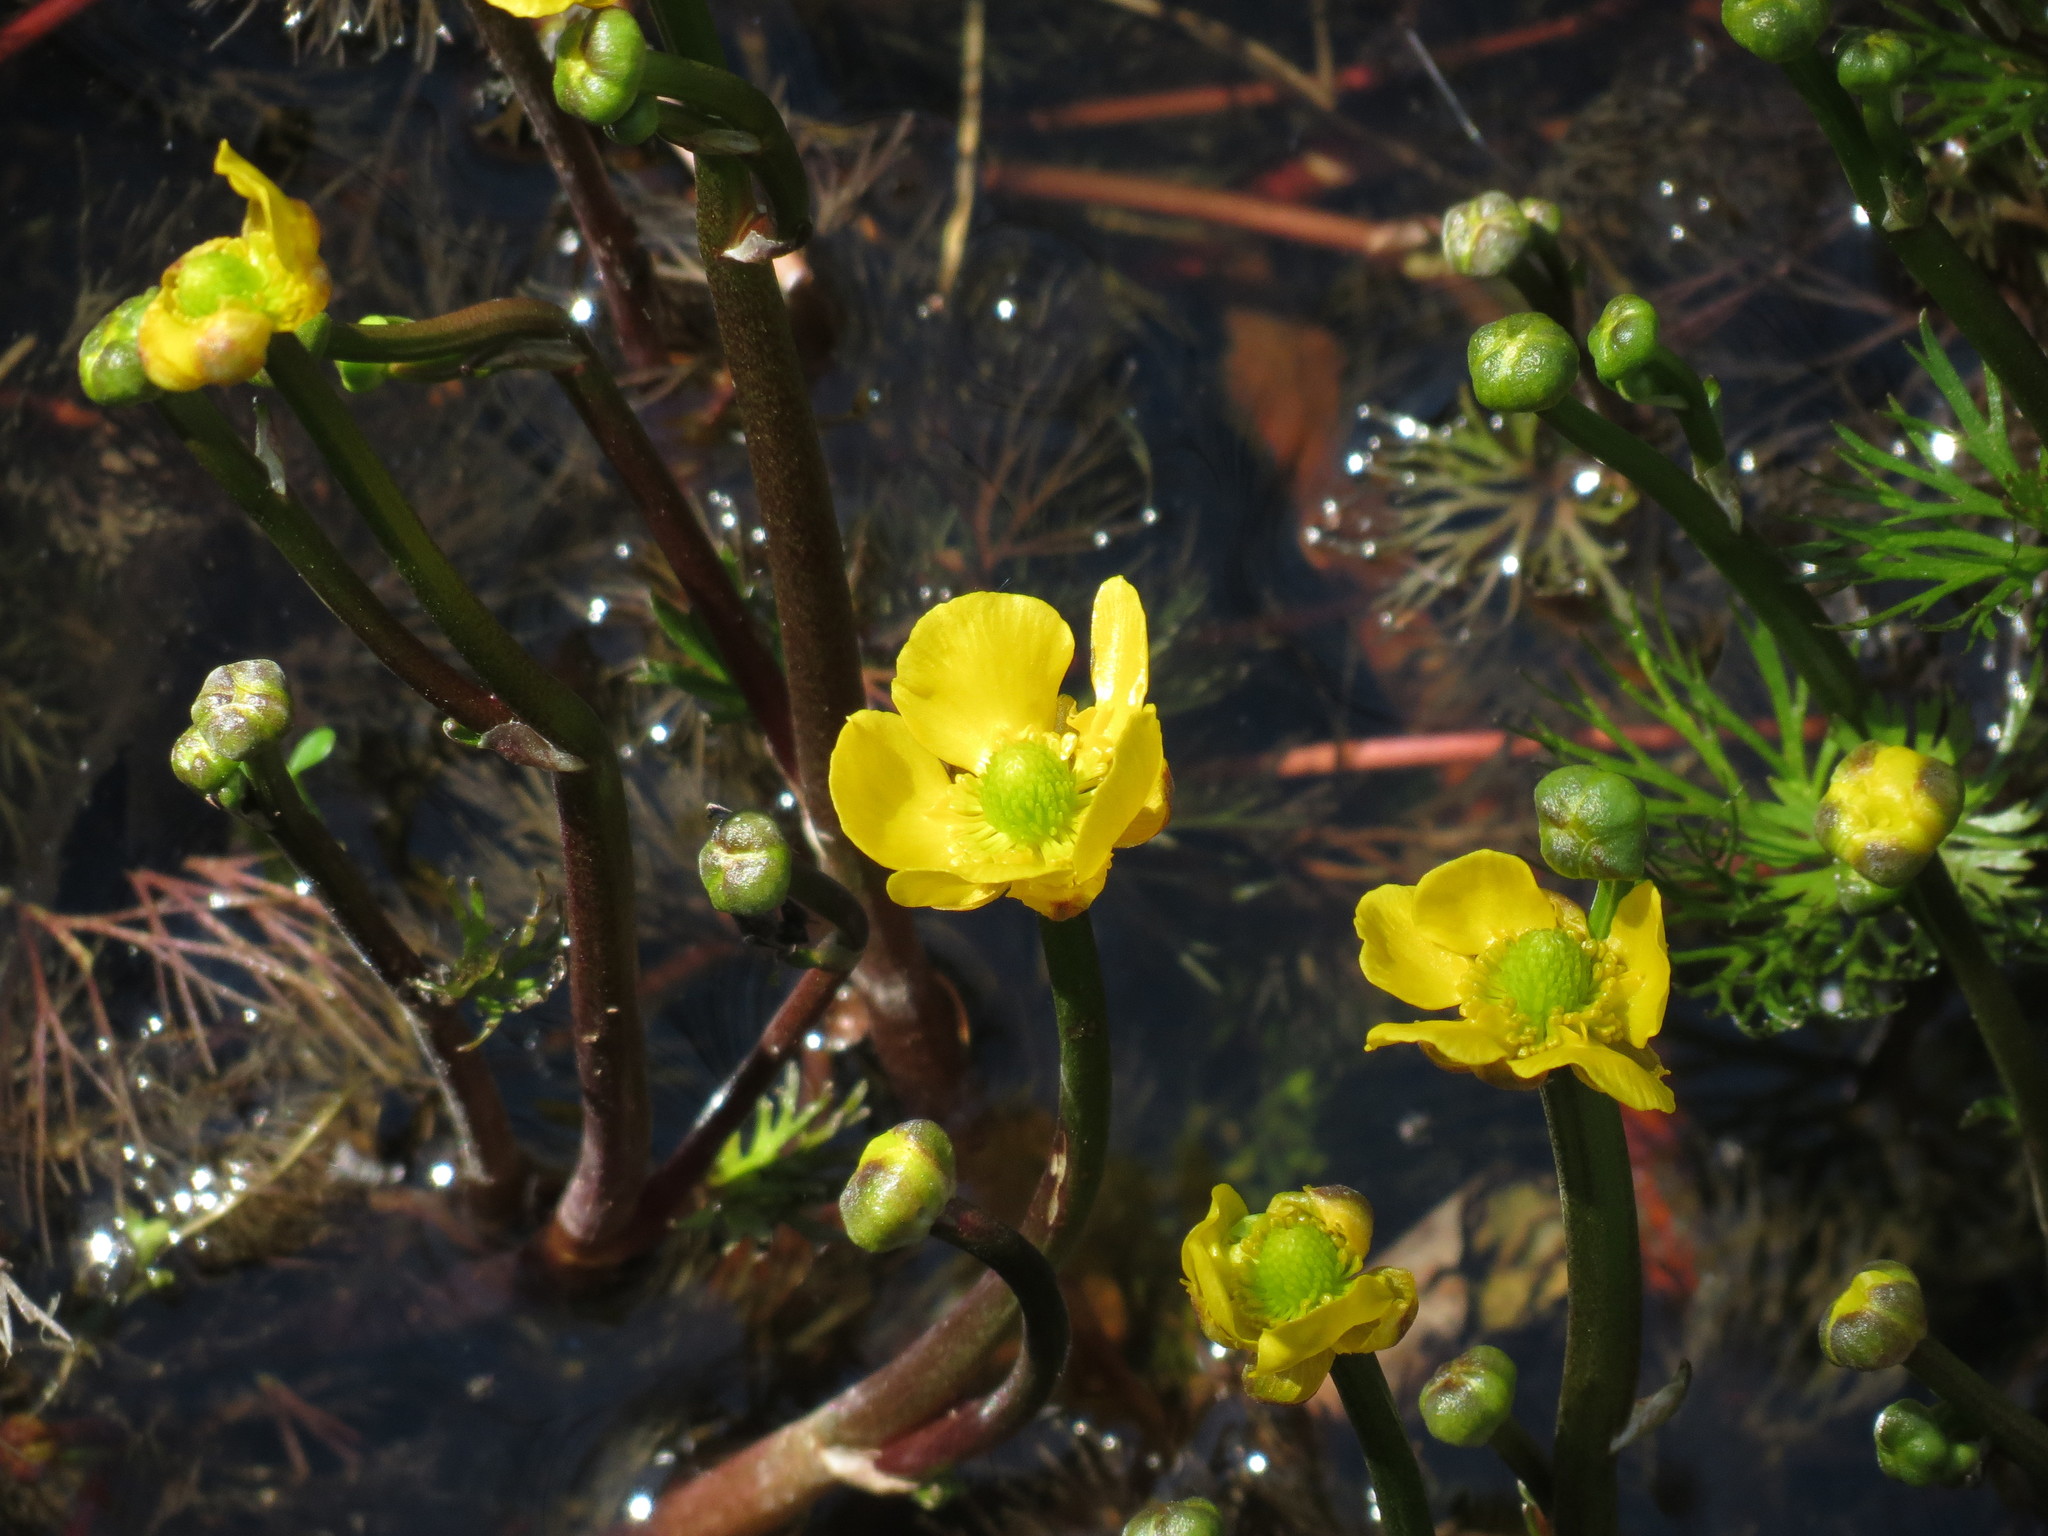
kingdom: Plantae
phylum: Tracheophyta
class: Magnoliopsida
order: Ranunculales
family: Ranunculaceae
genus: Ranunculus
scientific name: Ranunculus flabellaris
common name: Yellow water-crowfoot
